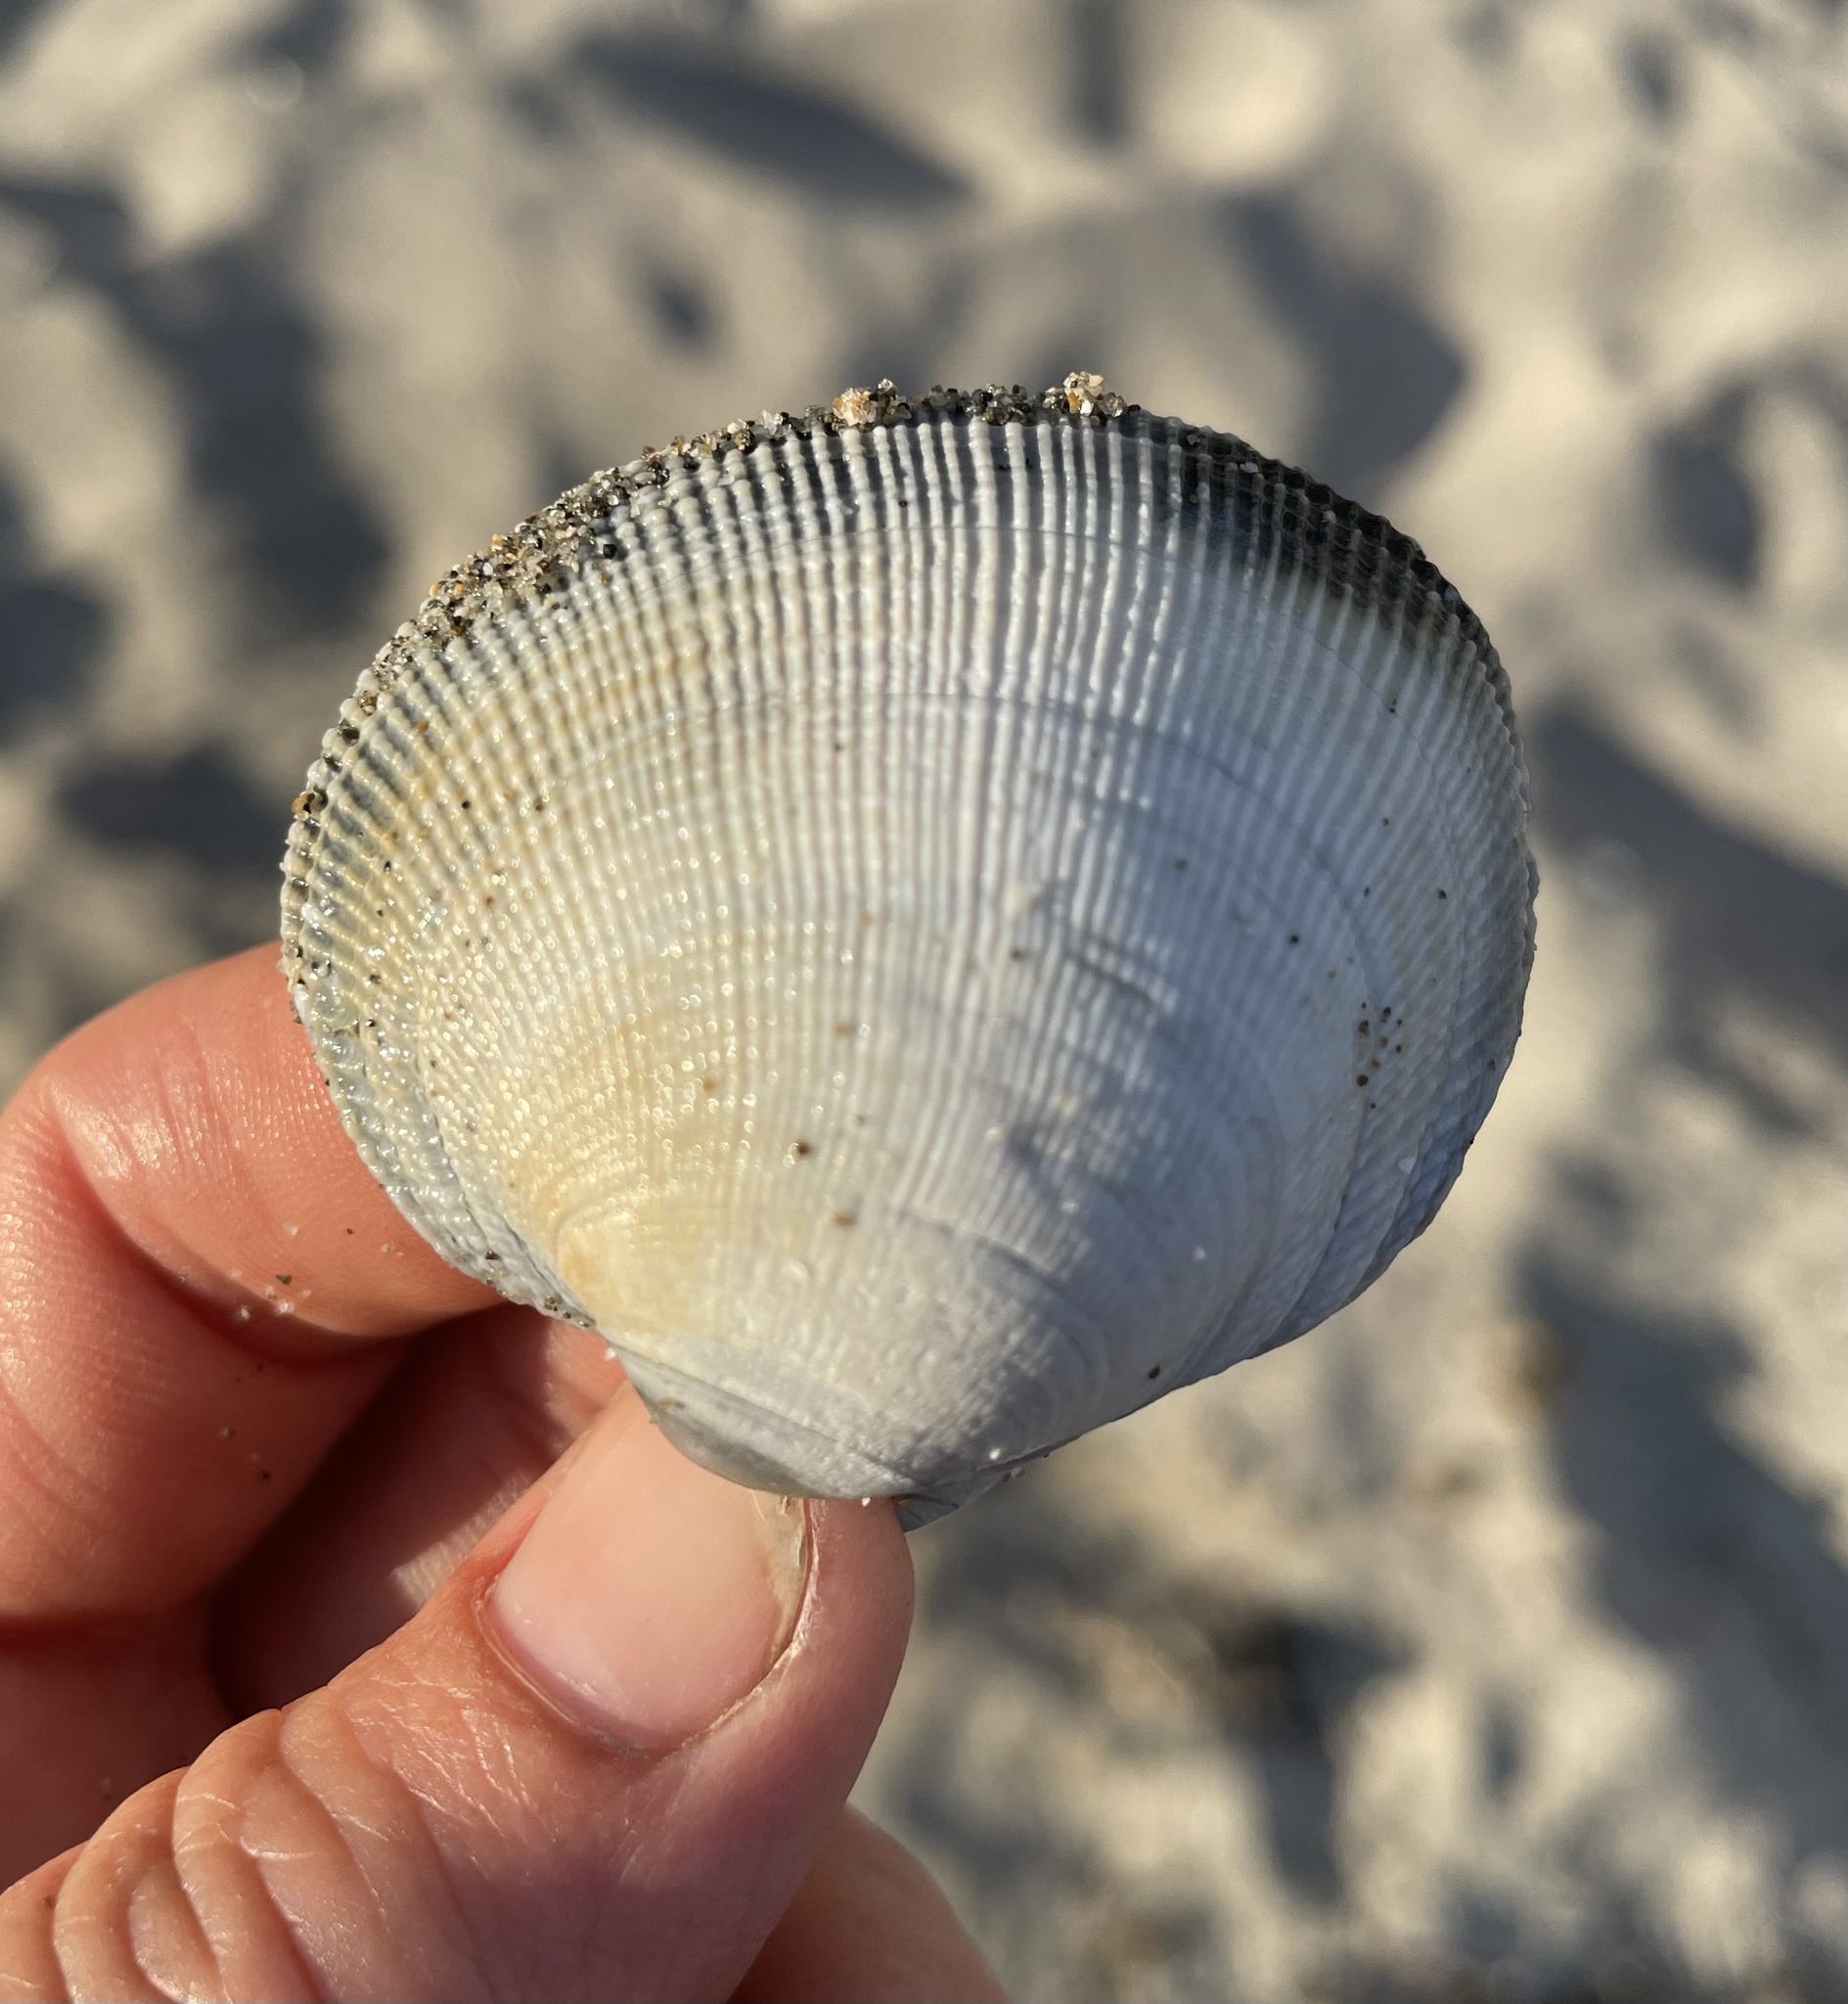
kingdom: Animalia
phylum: Mollusca
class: Bivalvia
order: Venerida
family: Veneridae
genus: Leukoma
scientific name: Leukoma staminea
